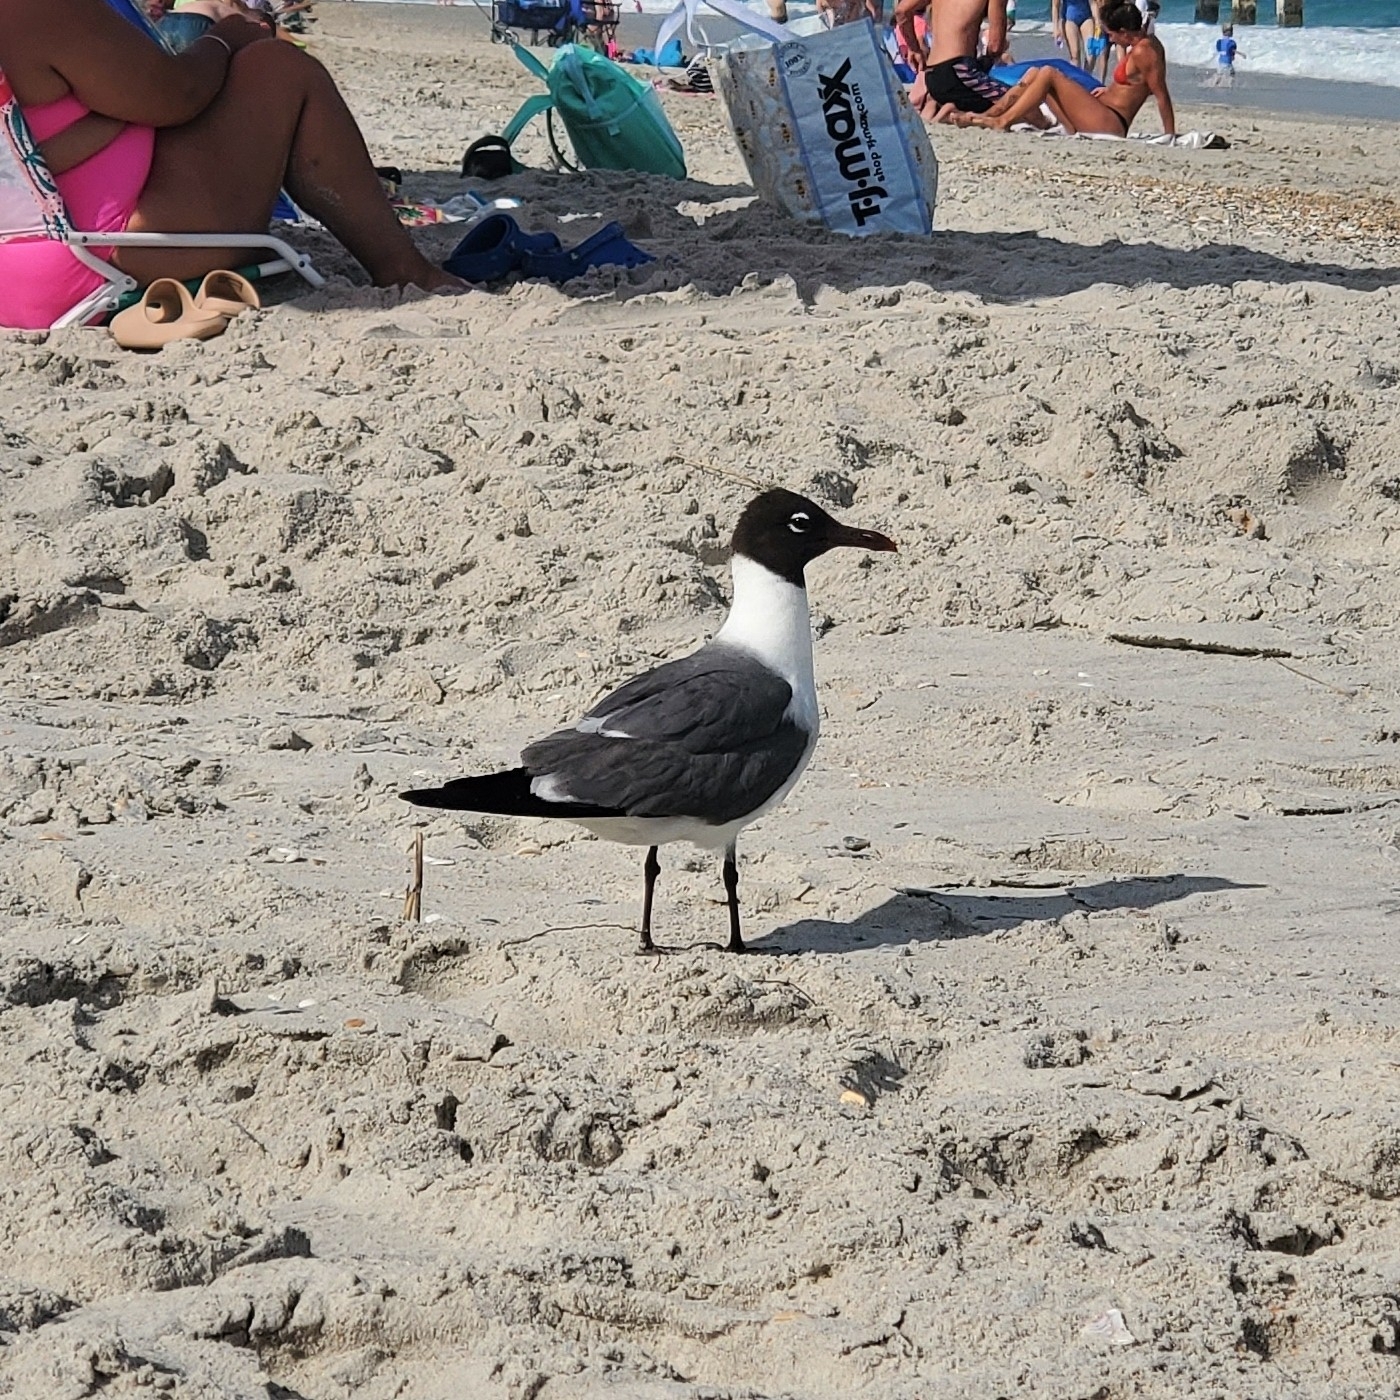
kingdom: Animalia
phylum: Chordata
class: Aves
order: Charadriiformes
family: Laridae
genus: Leucophaeus
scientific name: Leucophaeus atricilla
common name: Laughing gull
